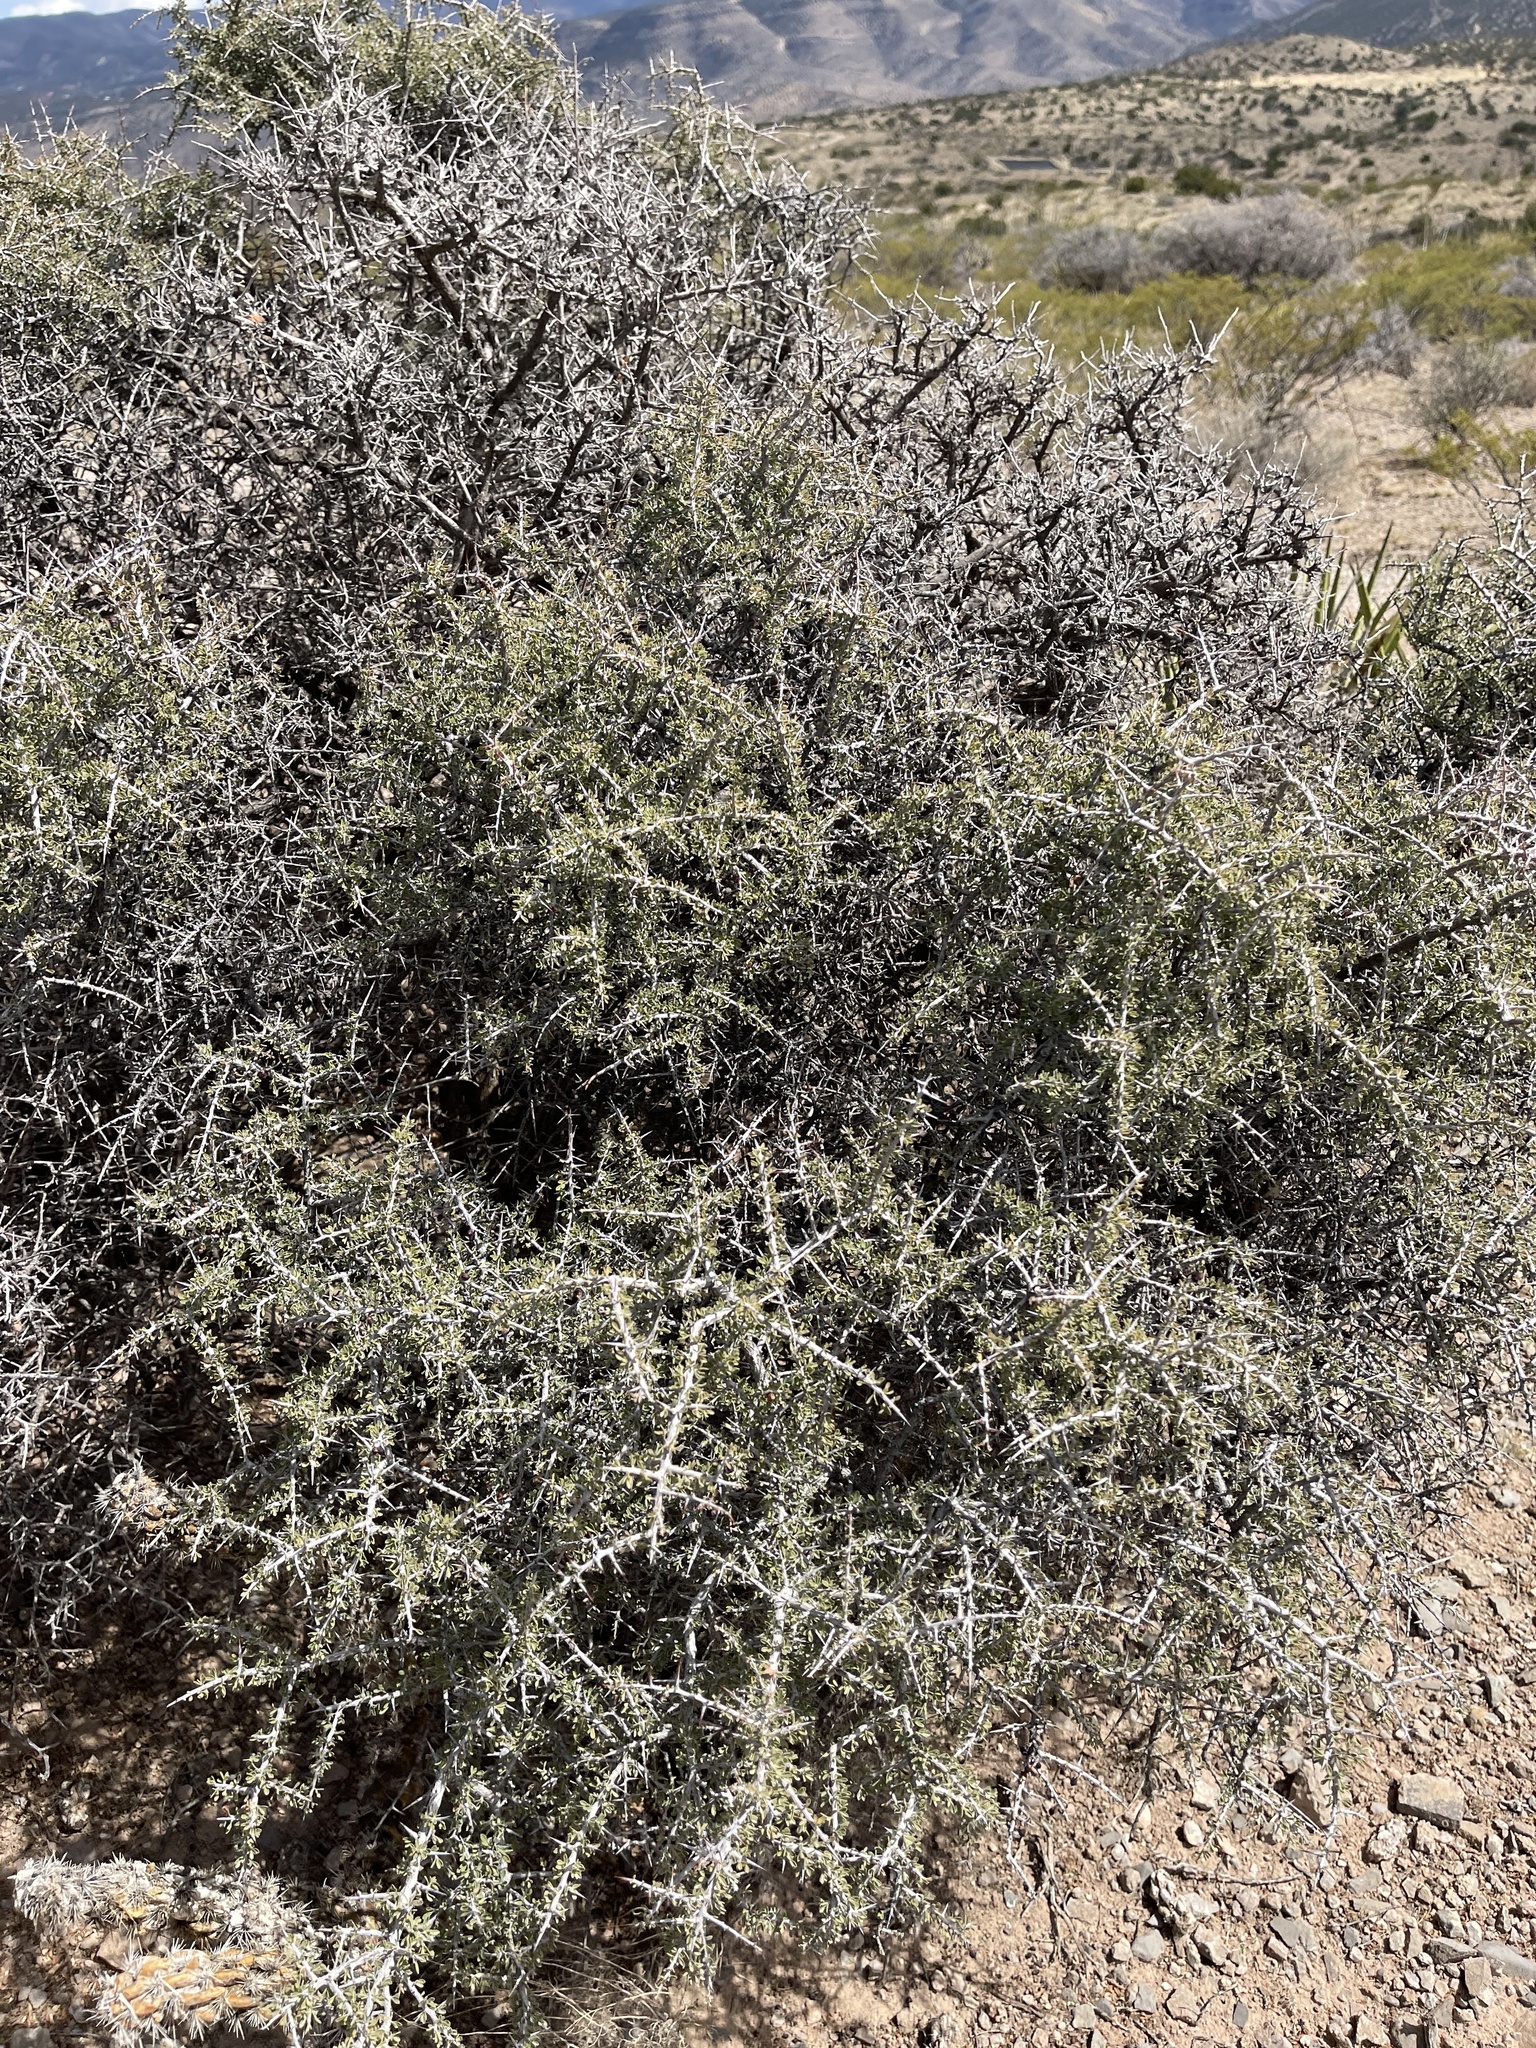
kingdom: Plantae
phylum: Tracheophyta
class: Magnoliopsida
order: Rosales
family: Rhamnaceae
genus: Condalia
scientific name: Condalia warnockii
